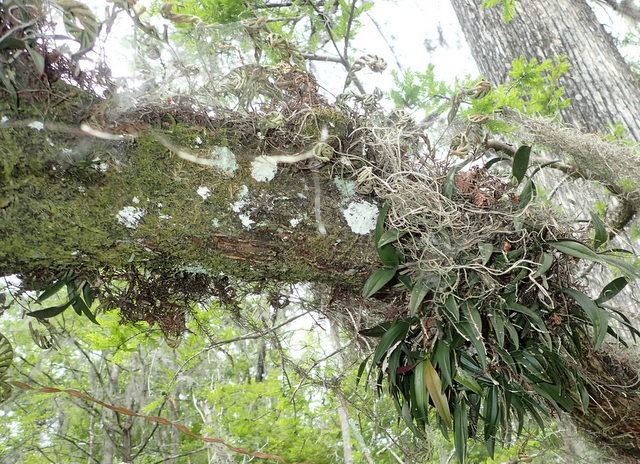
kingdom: Plantae
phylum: Tracheophyta
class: Liliopsida
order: Asparagales
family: Orchidaceae
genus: Epidendrum
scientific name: Epidendrum conopseum
